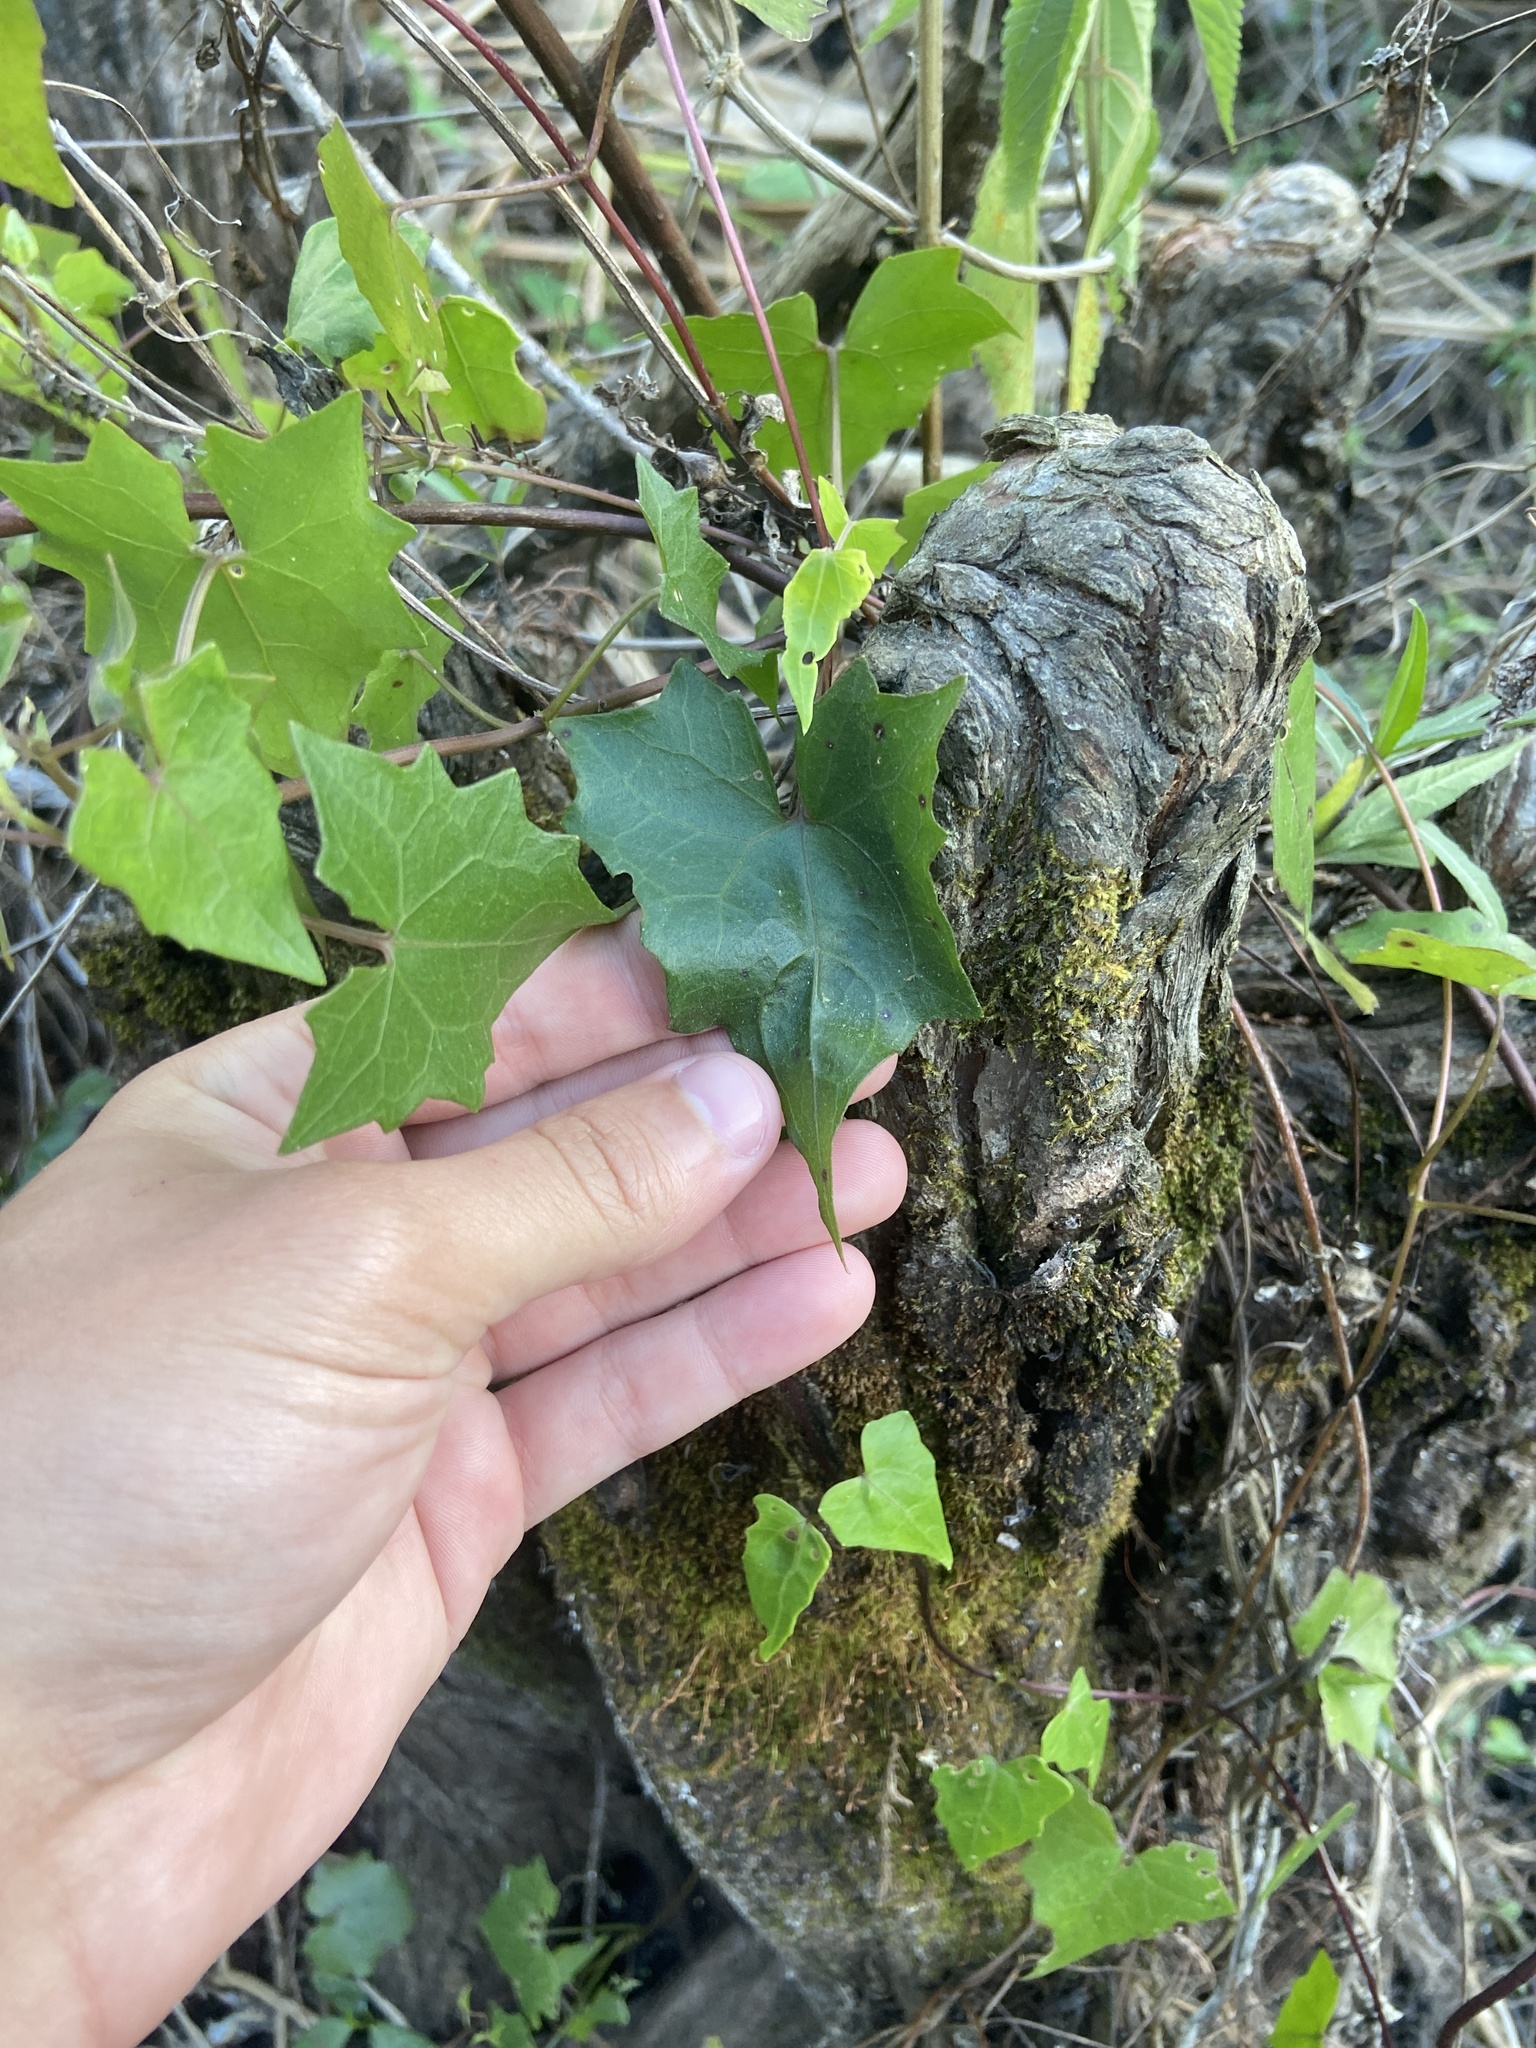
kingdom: Plantae
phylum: Tracheophyta
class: Magnoliopsida
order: Asterales
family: Asteraceae
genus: Mikania
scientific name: Mikania scandens
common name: Climbing hempvine
